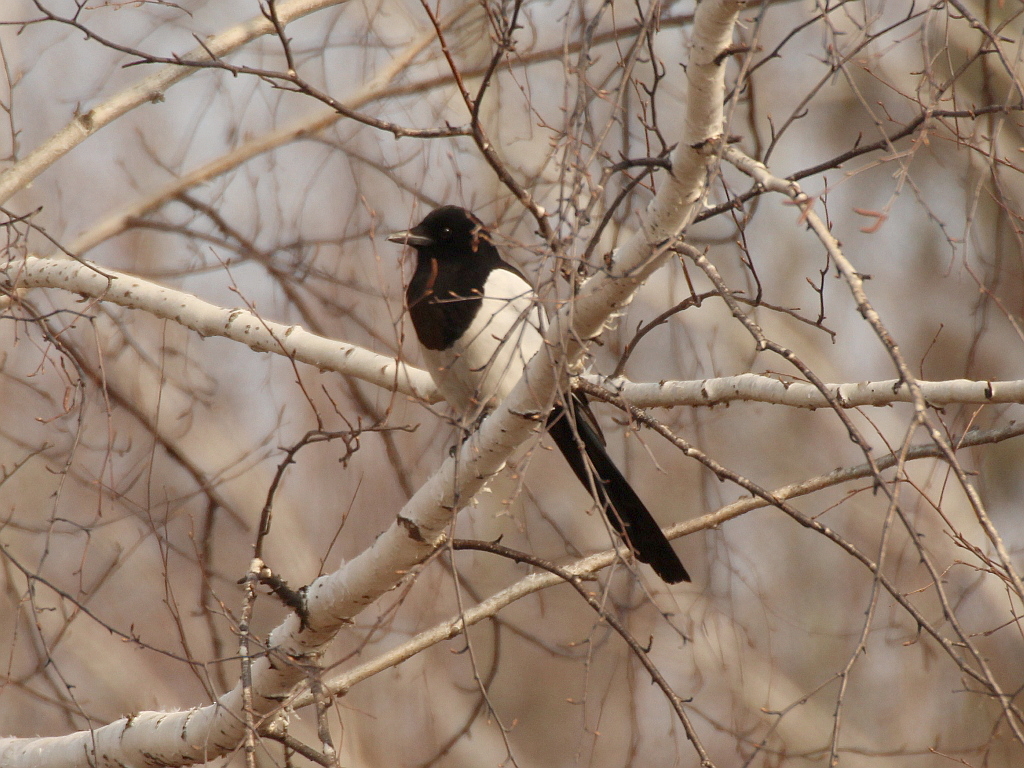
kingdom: Animalia
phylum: Chordata
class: Aves
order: Passeriformes
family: Corvidae
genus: Pica
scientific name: Pica pica
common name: Eurasian magpie
